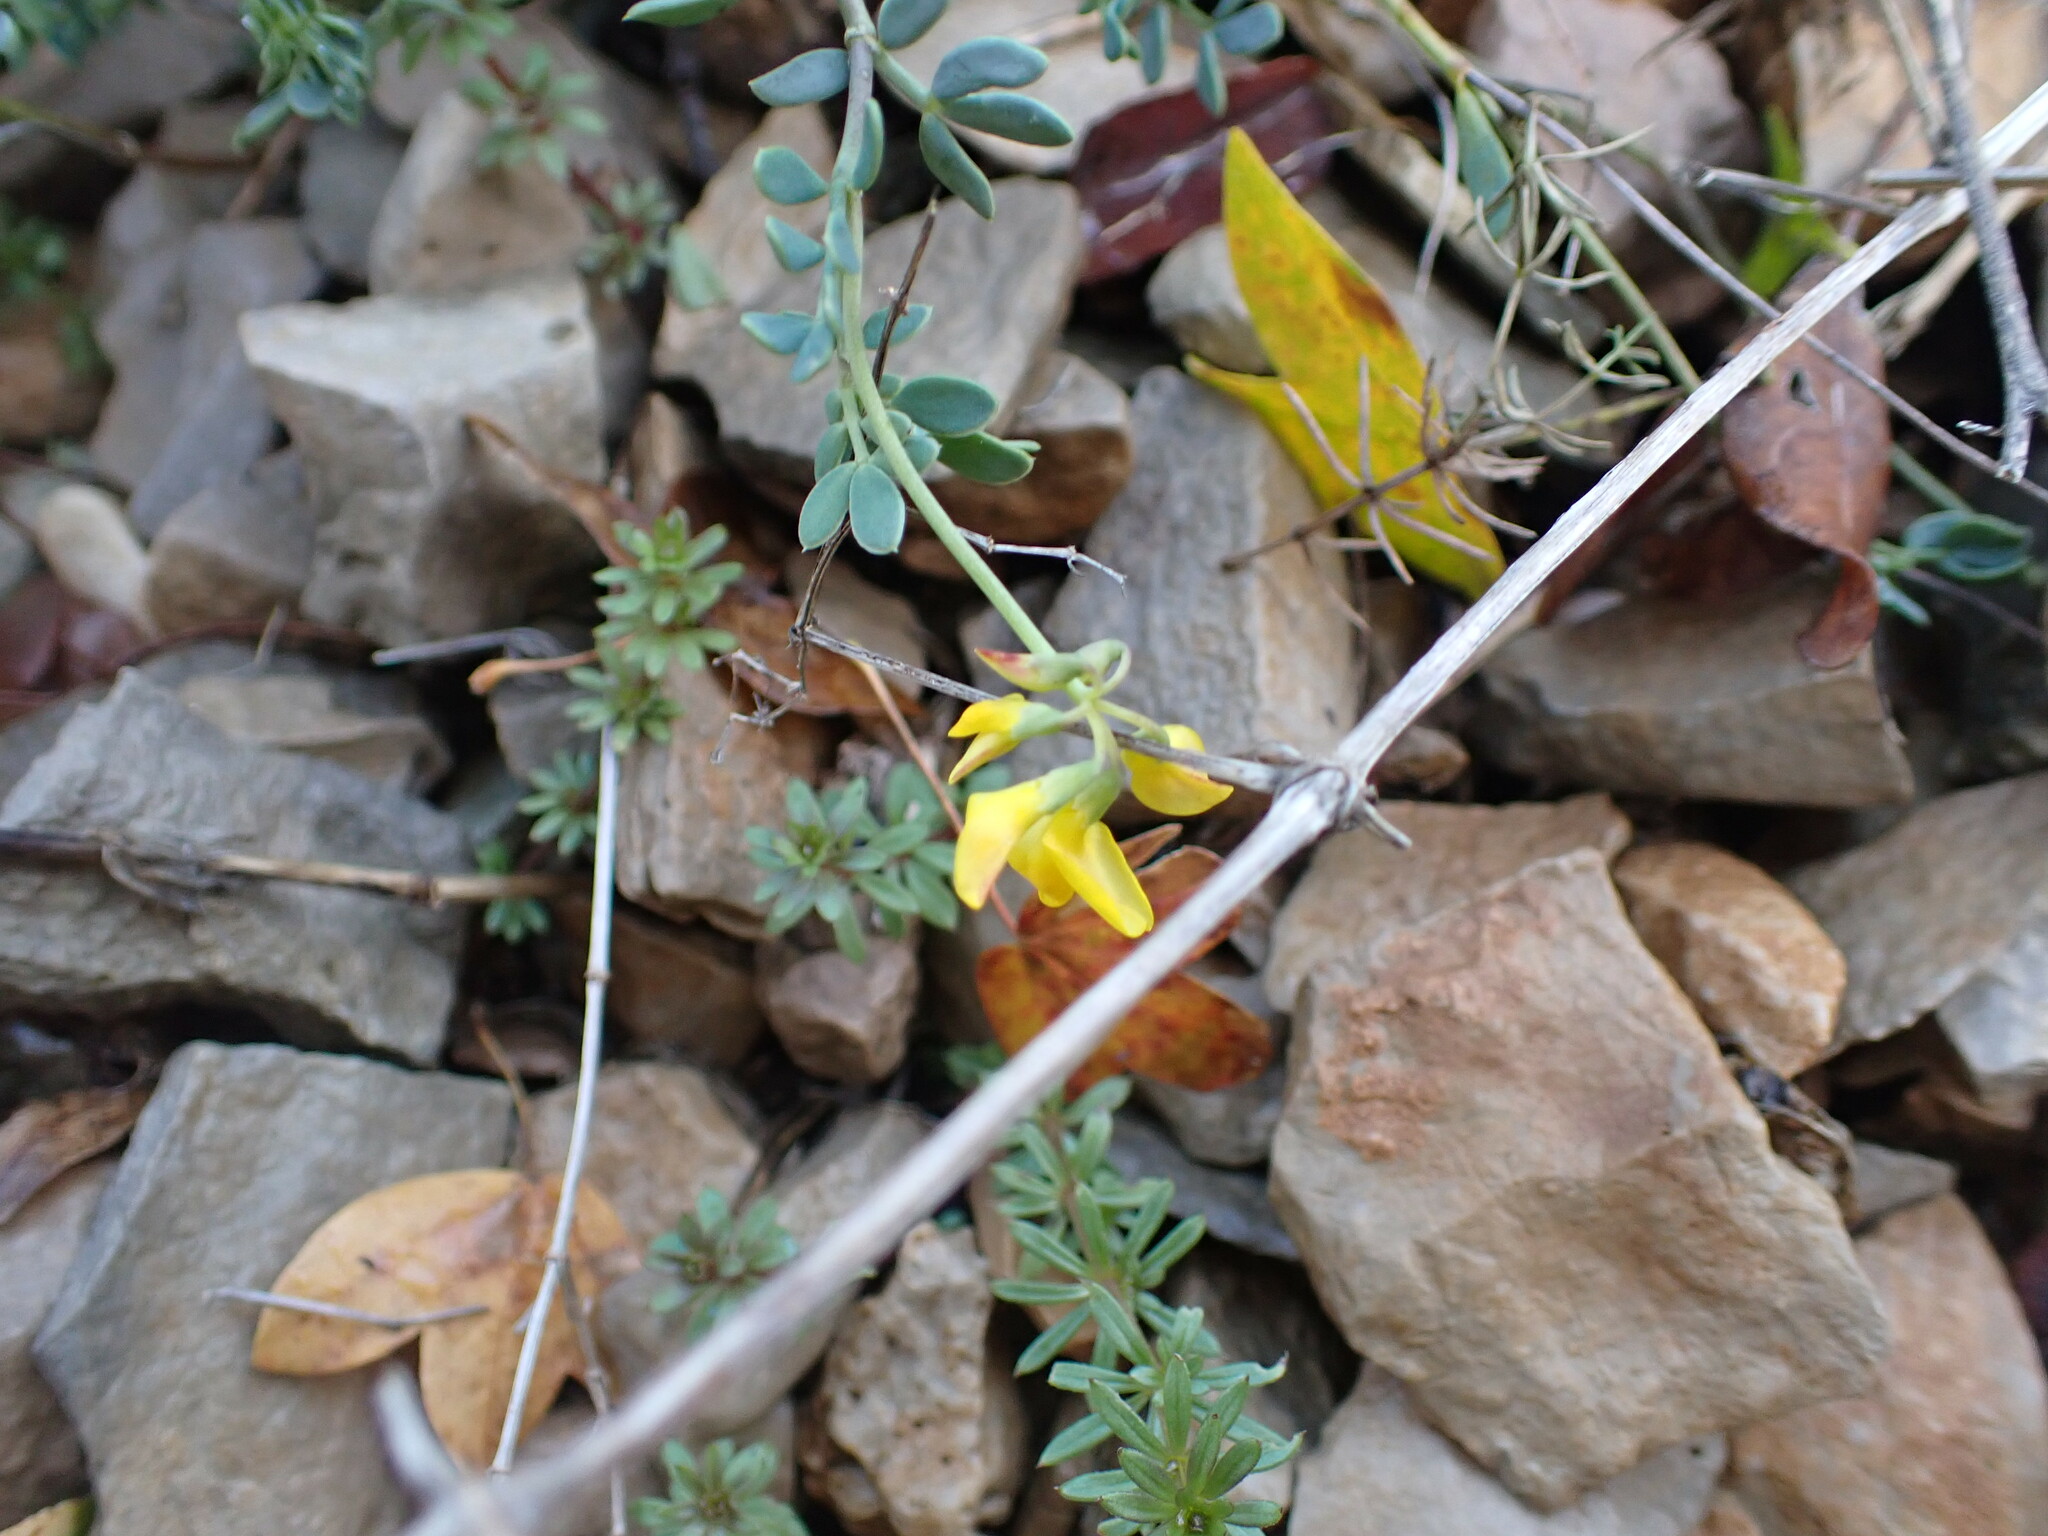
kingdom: Plantae
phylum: Tracheophyta
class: Magnoliopsida
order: Fabales
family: Fabaceae
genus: Coronilla
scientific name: Coronilla minima
